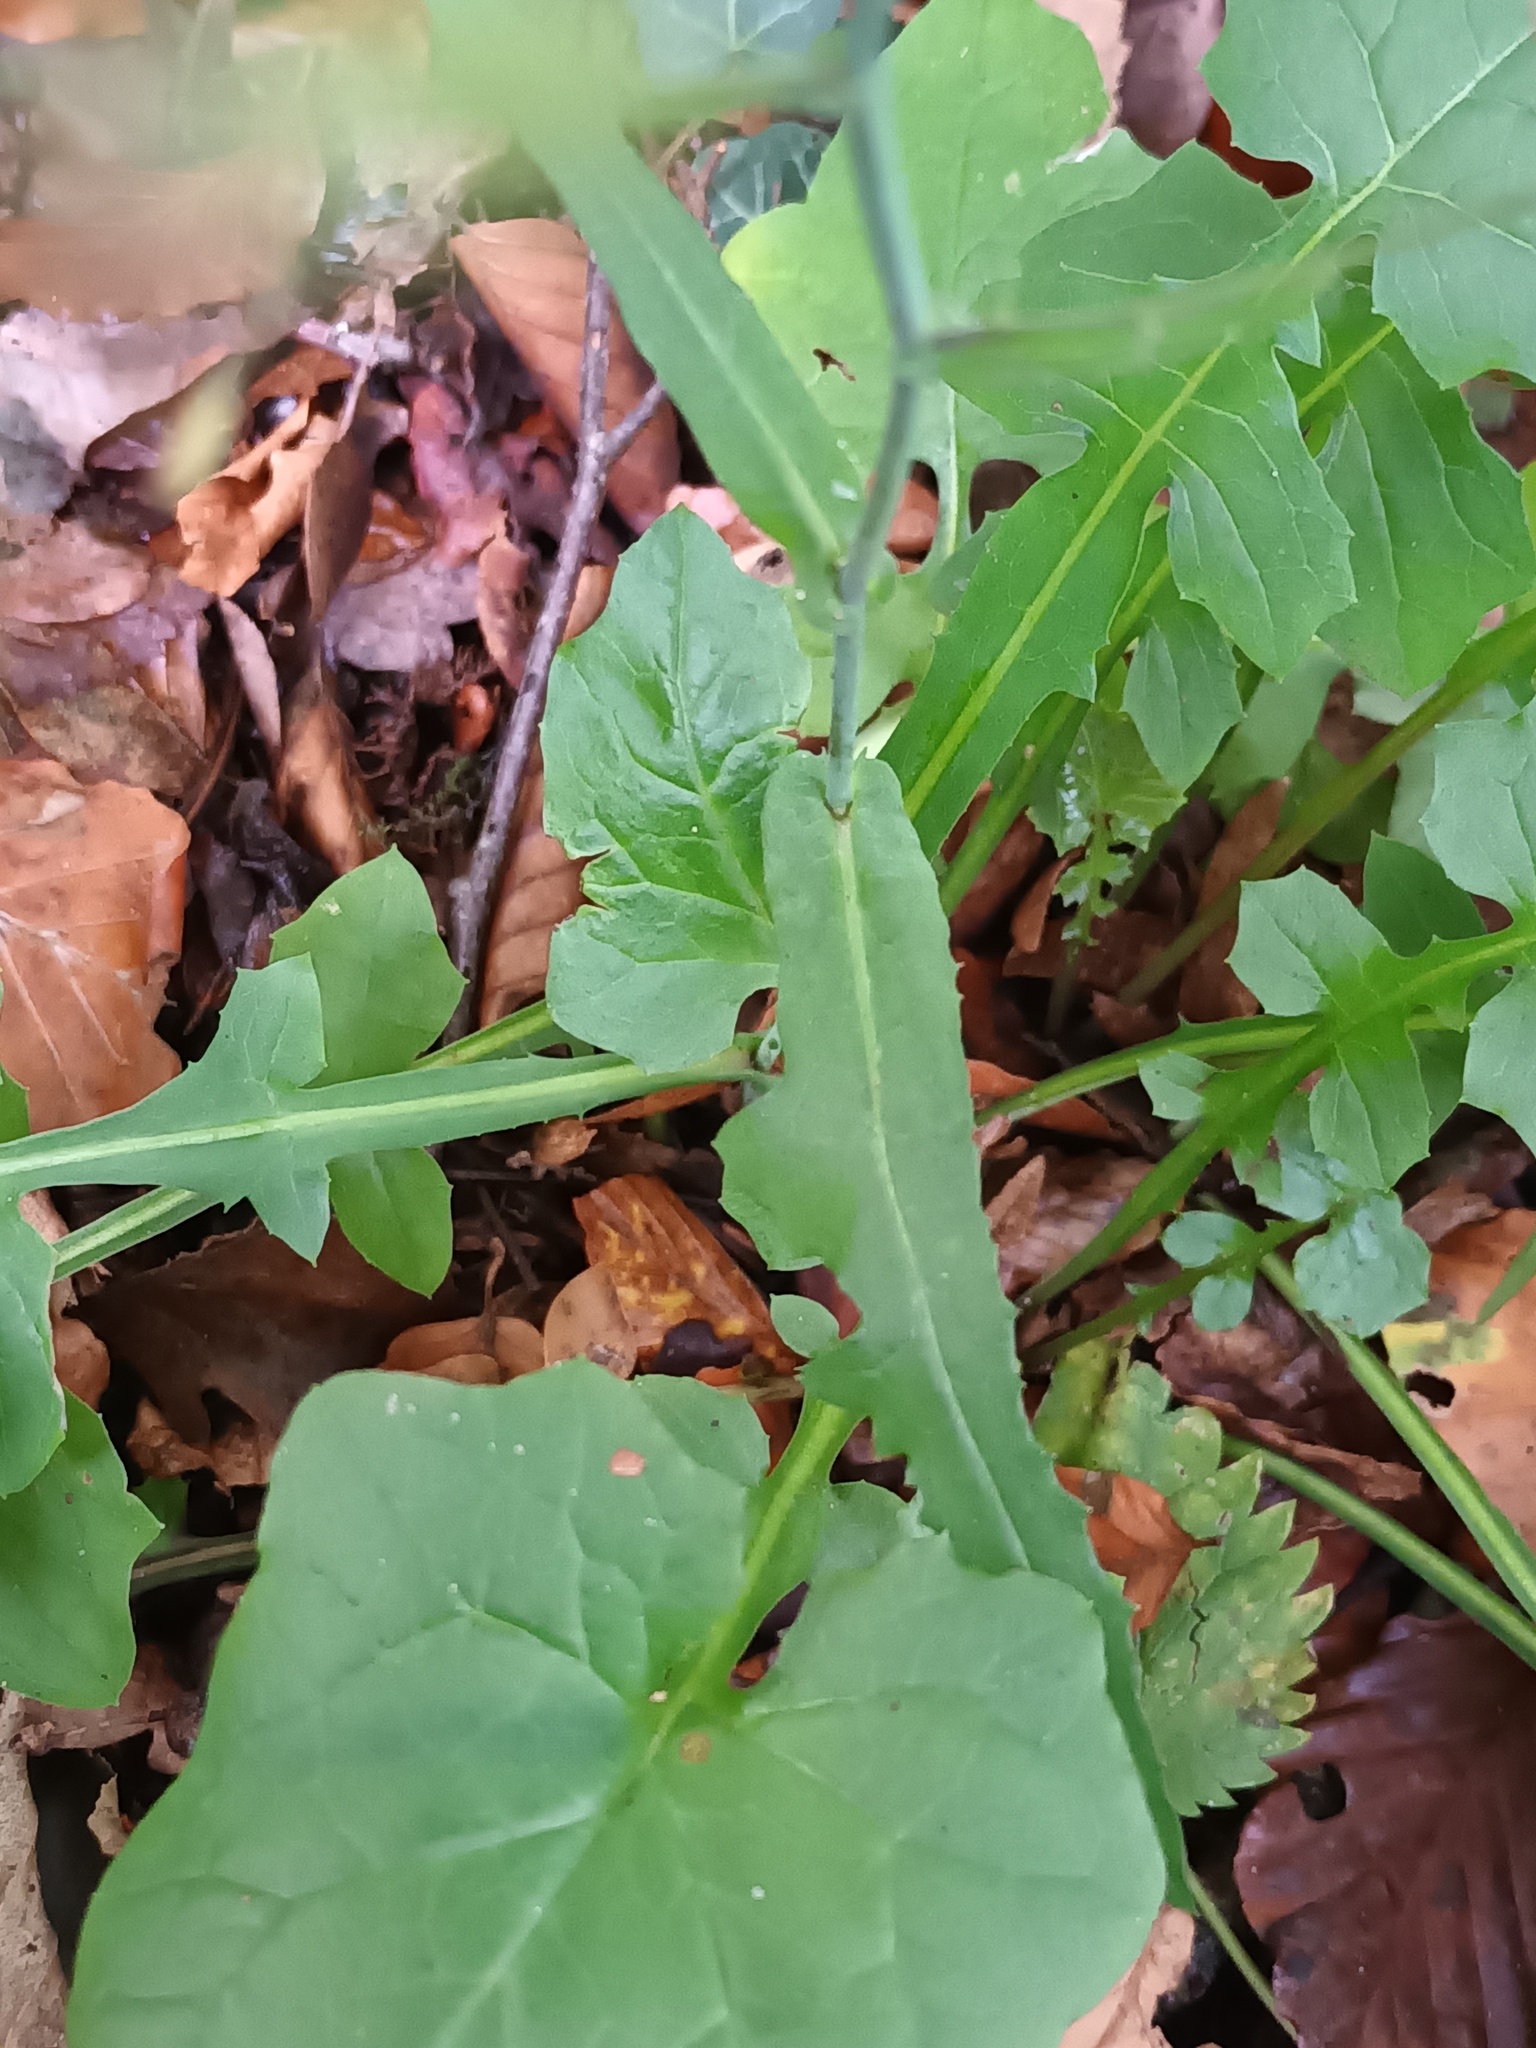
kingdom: Plantae
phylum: Tracheophyta
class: Magnoliopsida
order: Asterales
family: Asteraceae
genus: Mycelis
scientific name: Mycelis muralis
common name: Wall lettuce
